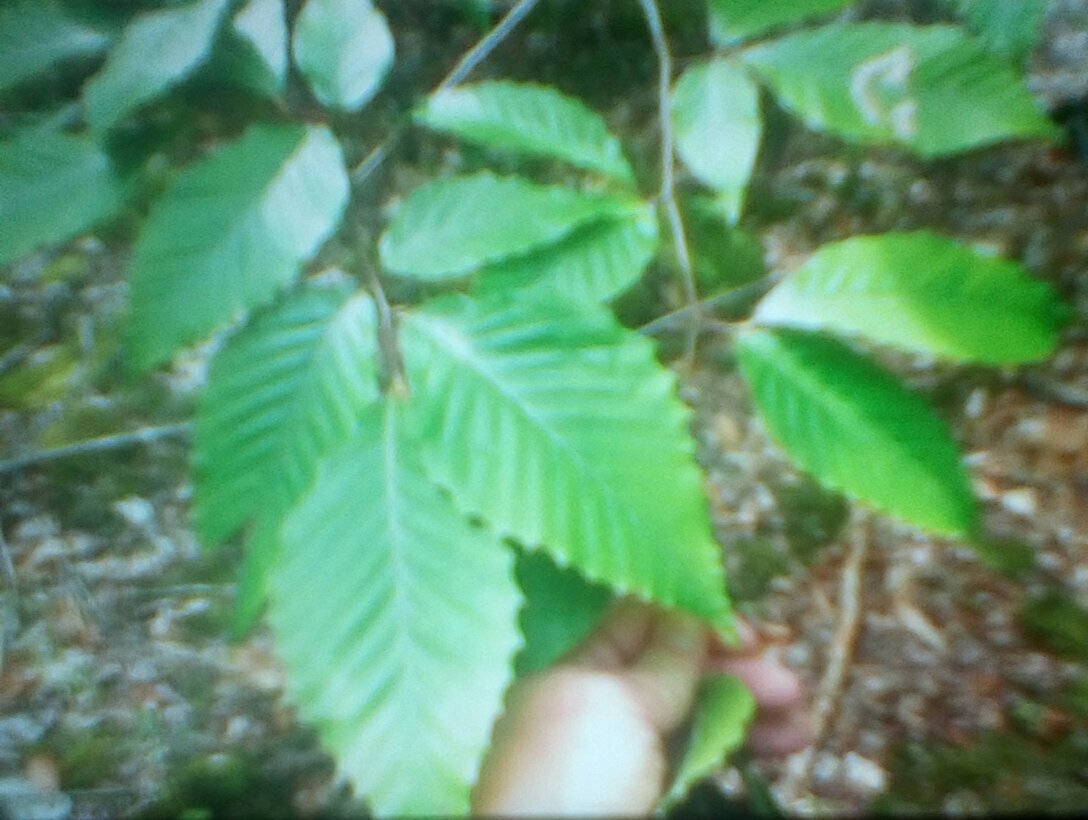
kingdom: Plantae
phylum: Tracheophyta
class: Magnoliopsida
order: Fagales
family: Fagaceae
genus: Fagus
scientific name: Fagus grandifolia
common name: American beech
